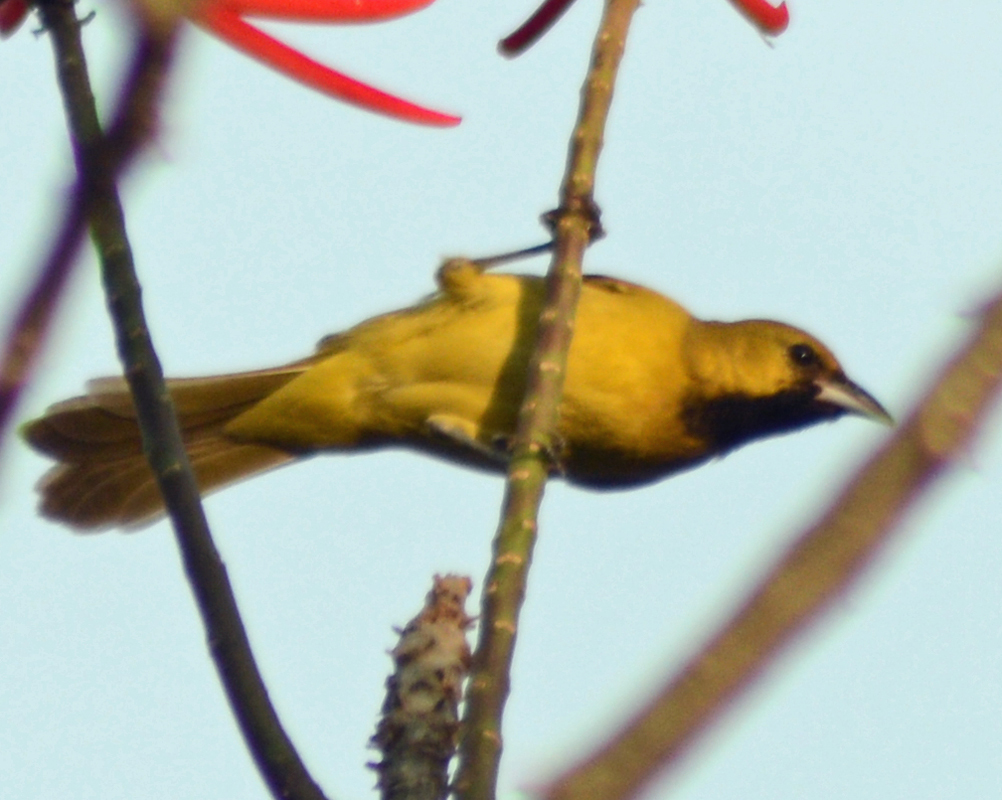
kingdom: Animalia
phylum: Chordata
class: Aves
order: Passeriformes
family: Icteridae
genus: Icterus
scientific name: Icterus spurius
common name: Orchard oriole
